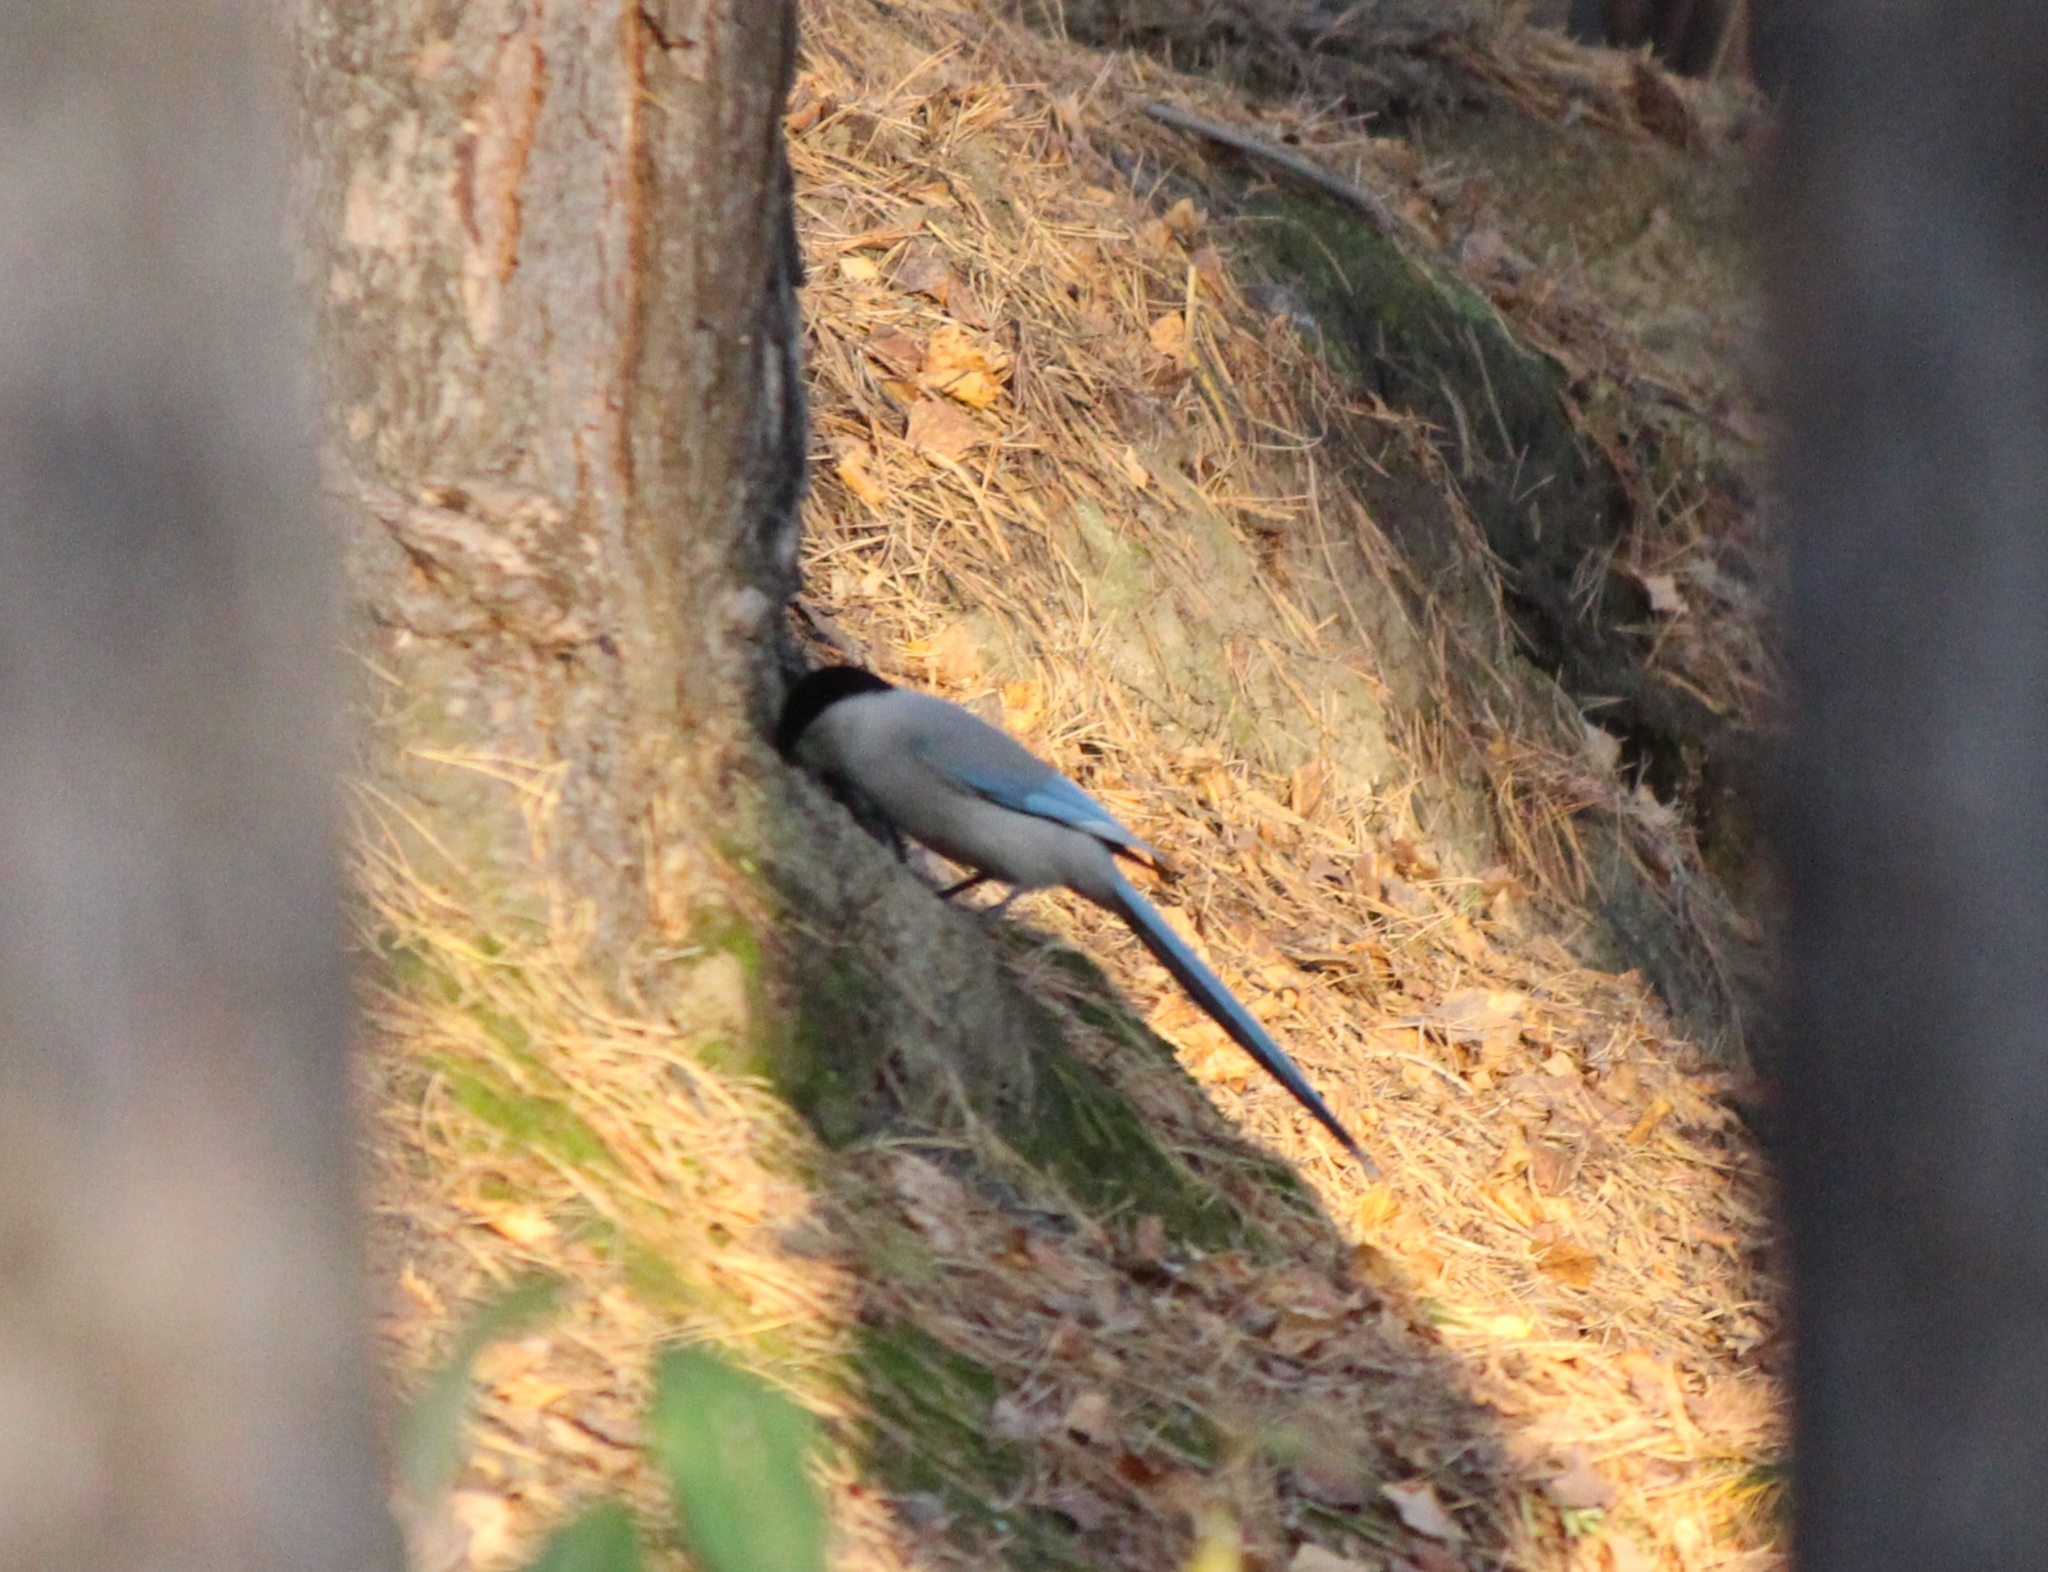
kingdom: Animalia
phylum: Chordata
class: Aves
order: Passeriformes
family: Corvidae
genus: Cyanopica
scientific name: Cyanopica cyanus
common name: Azure-winged magpie
